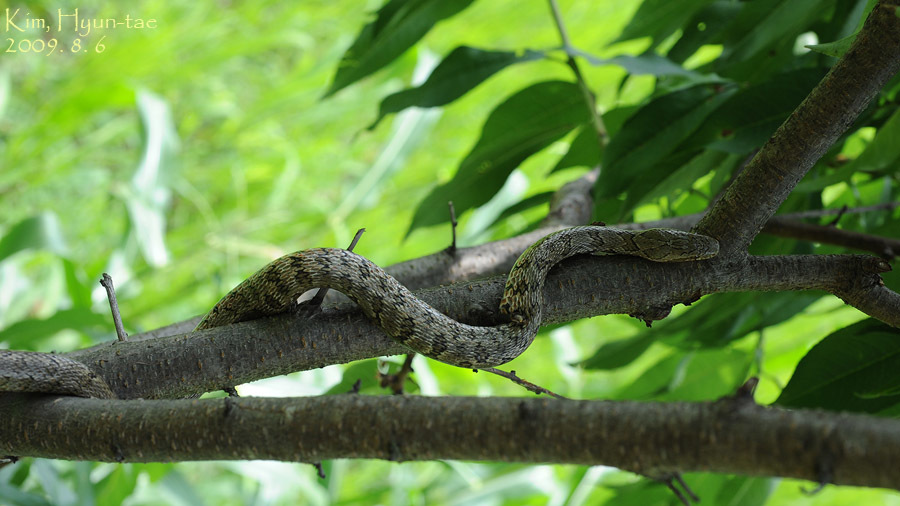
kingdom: Animalia
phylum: Chordata
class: Squamata
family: Colubridae
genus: Elaphe
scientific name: Elaphe dione
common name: Dione ratsnake
